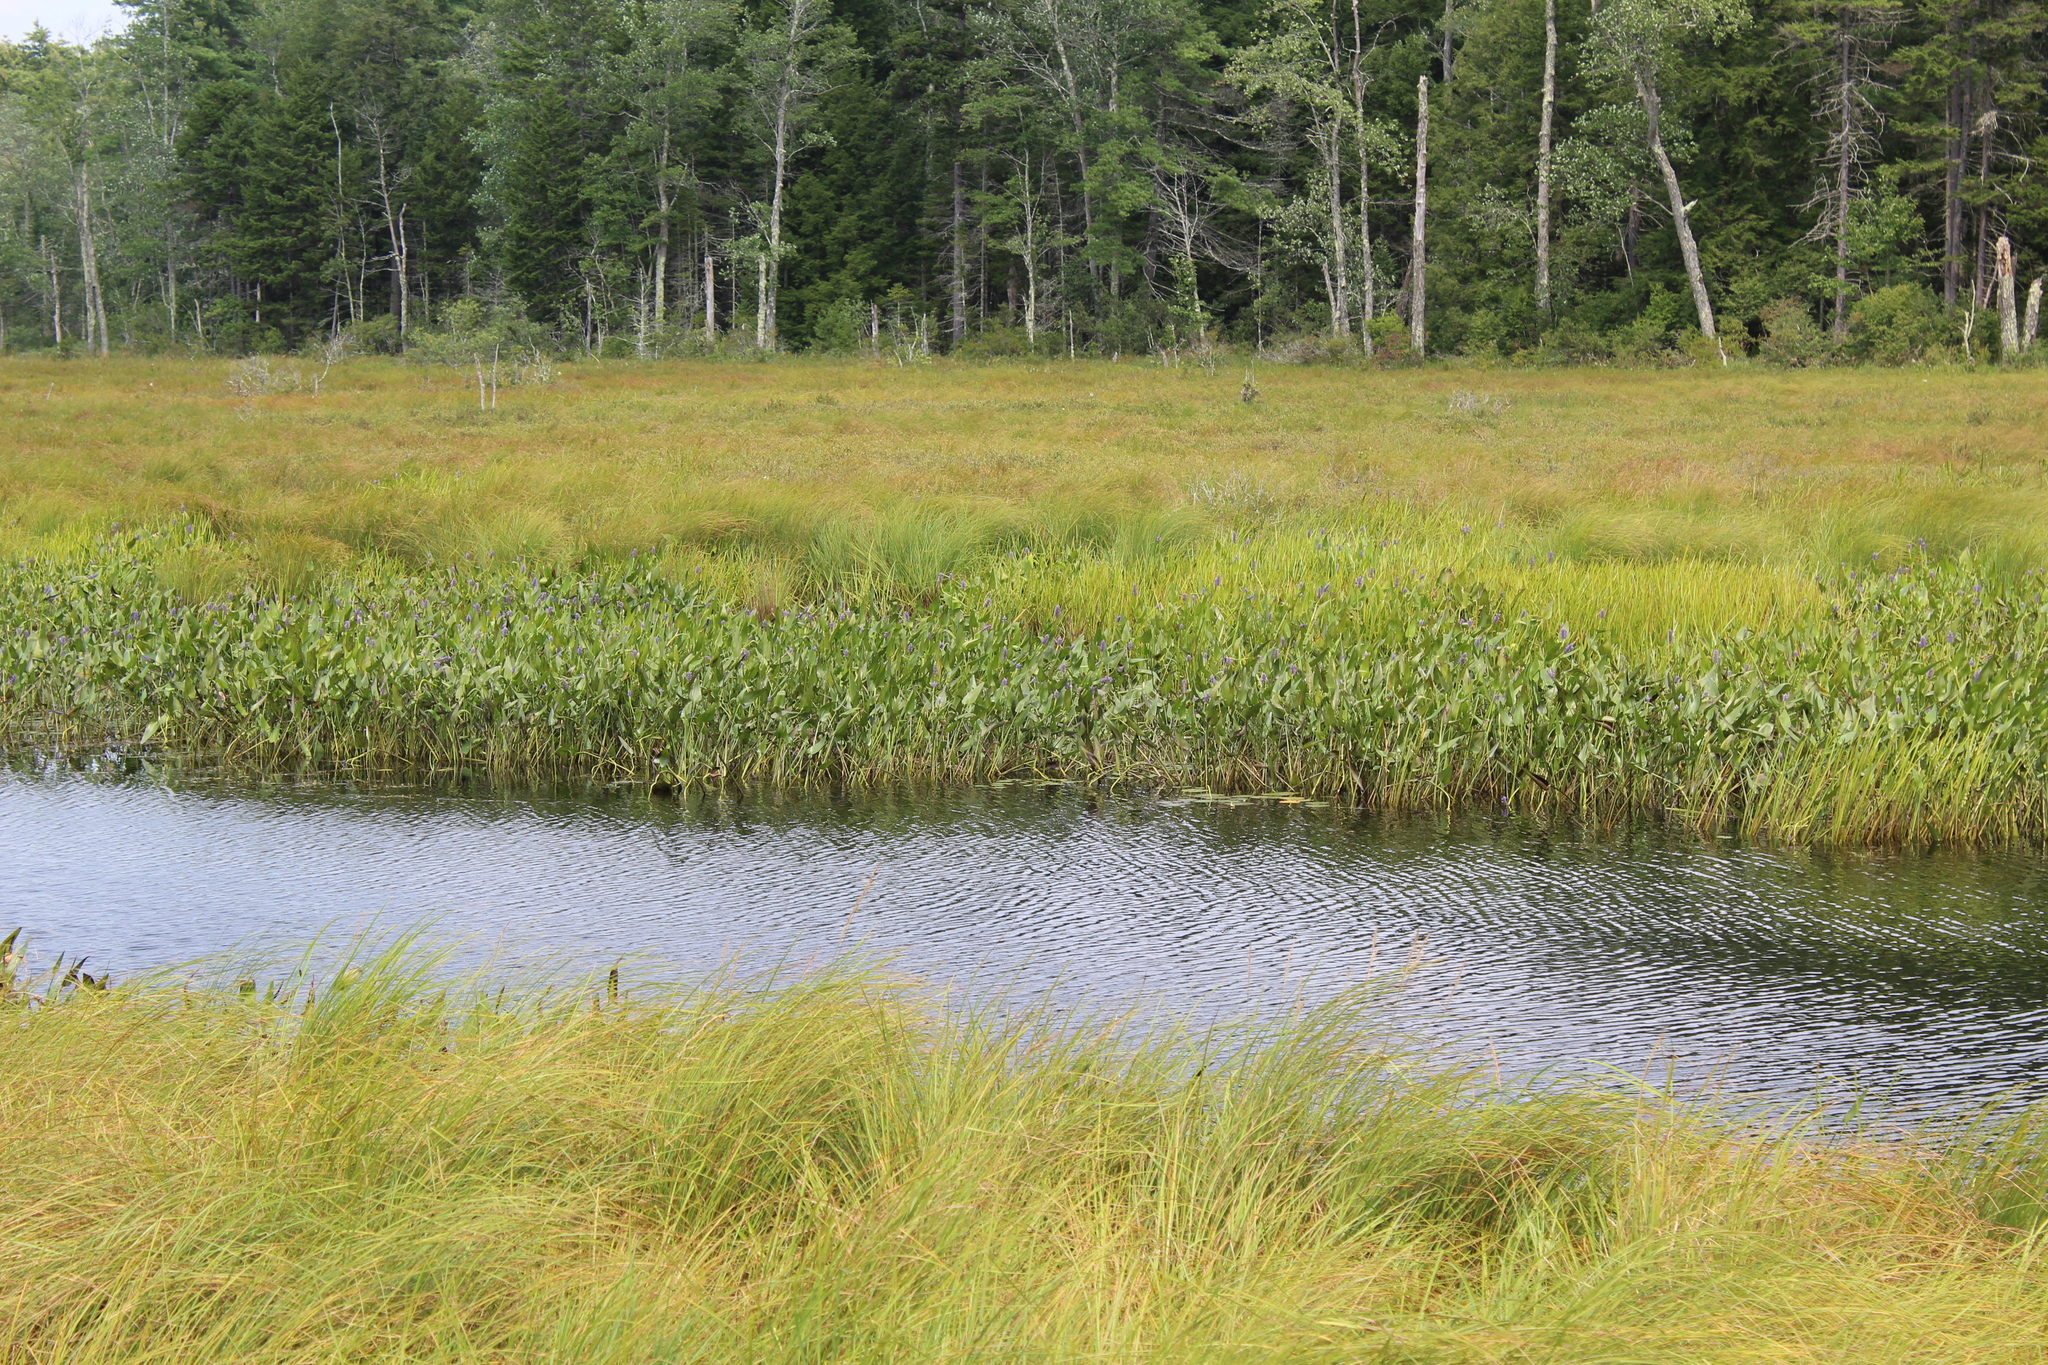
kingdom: Plantae
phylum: Tracheophyta
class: Liliopsida
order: Commelinales
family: Pontederiaceae
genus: Pontederia
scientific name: Pontederia cordata
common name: Pickerelweed
